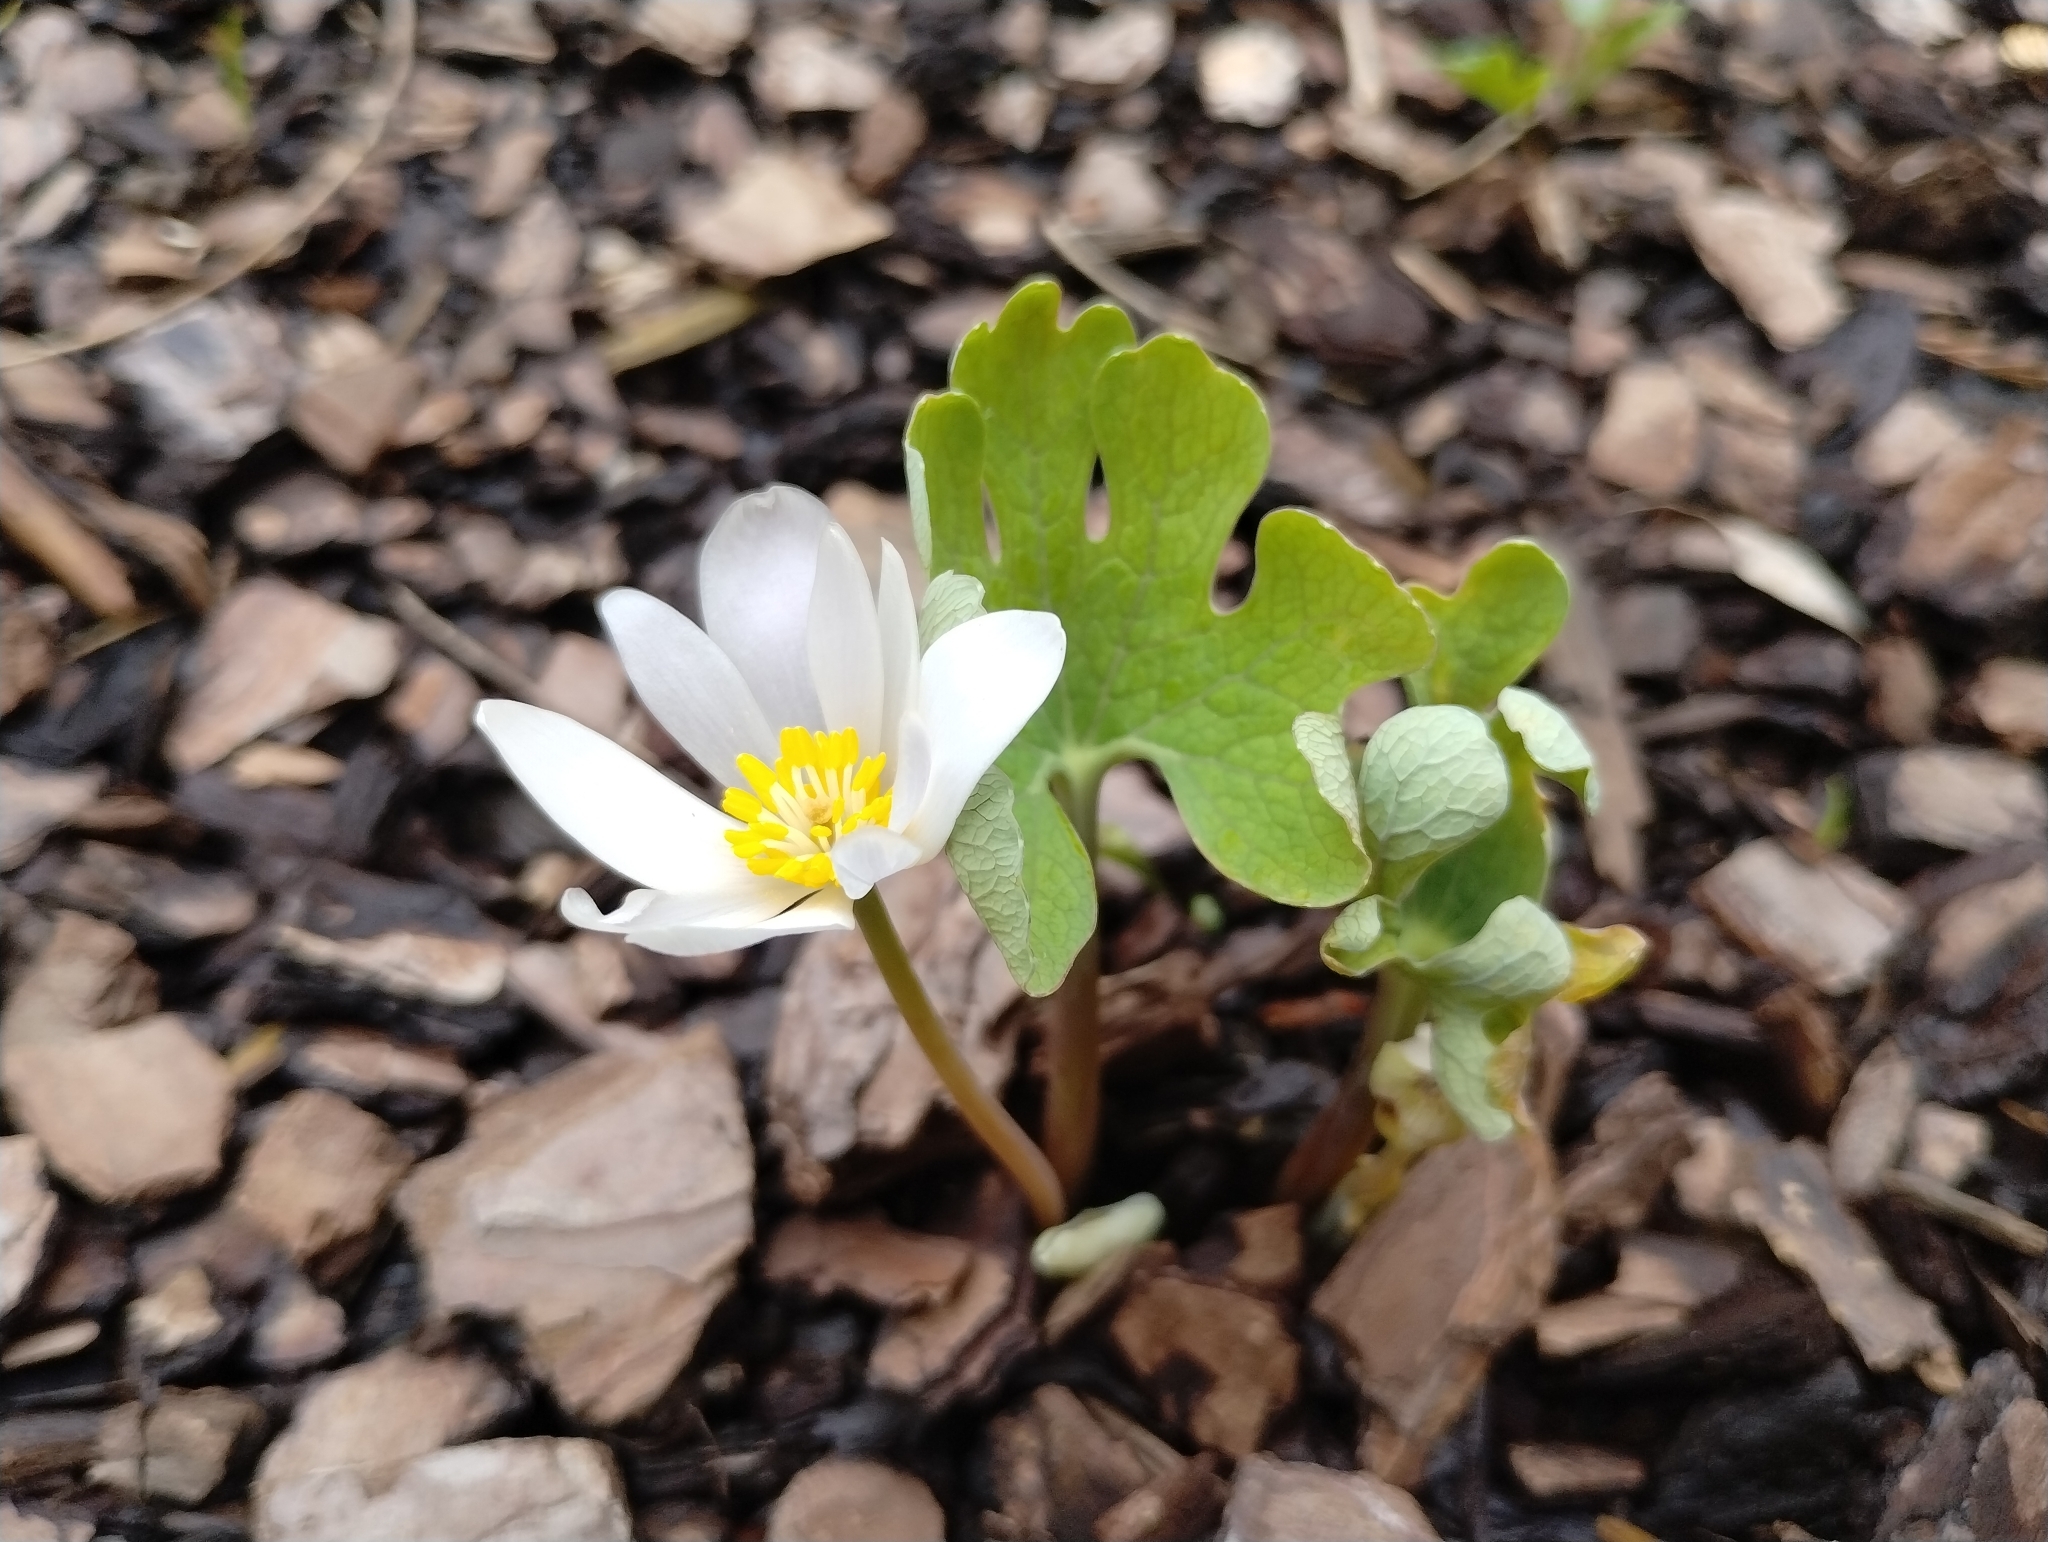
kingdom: Plantae
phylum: Tracheophyta
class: Magnoliopsida
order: Ranunculales
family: Papaveraceae
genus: Sanguinaria
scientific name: Sanguinaria canadensis
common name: Bloodroot
